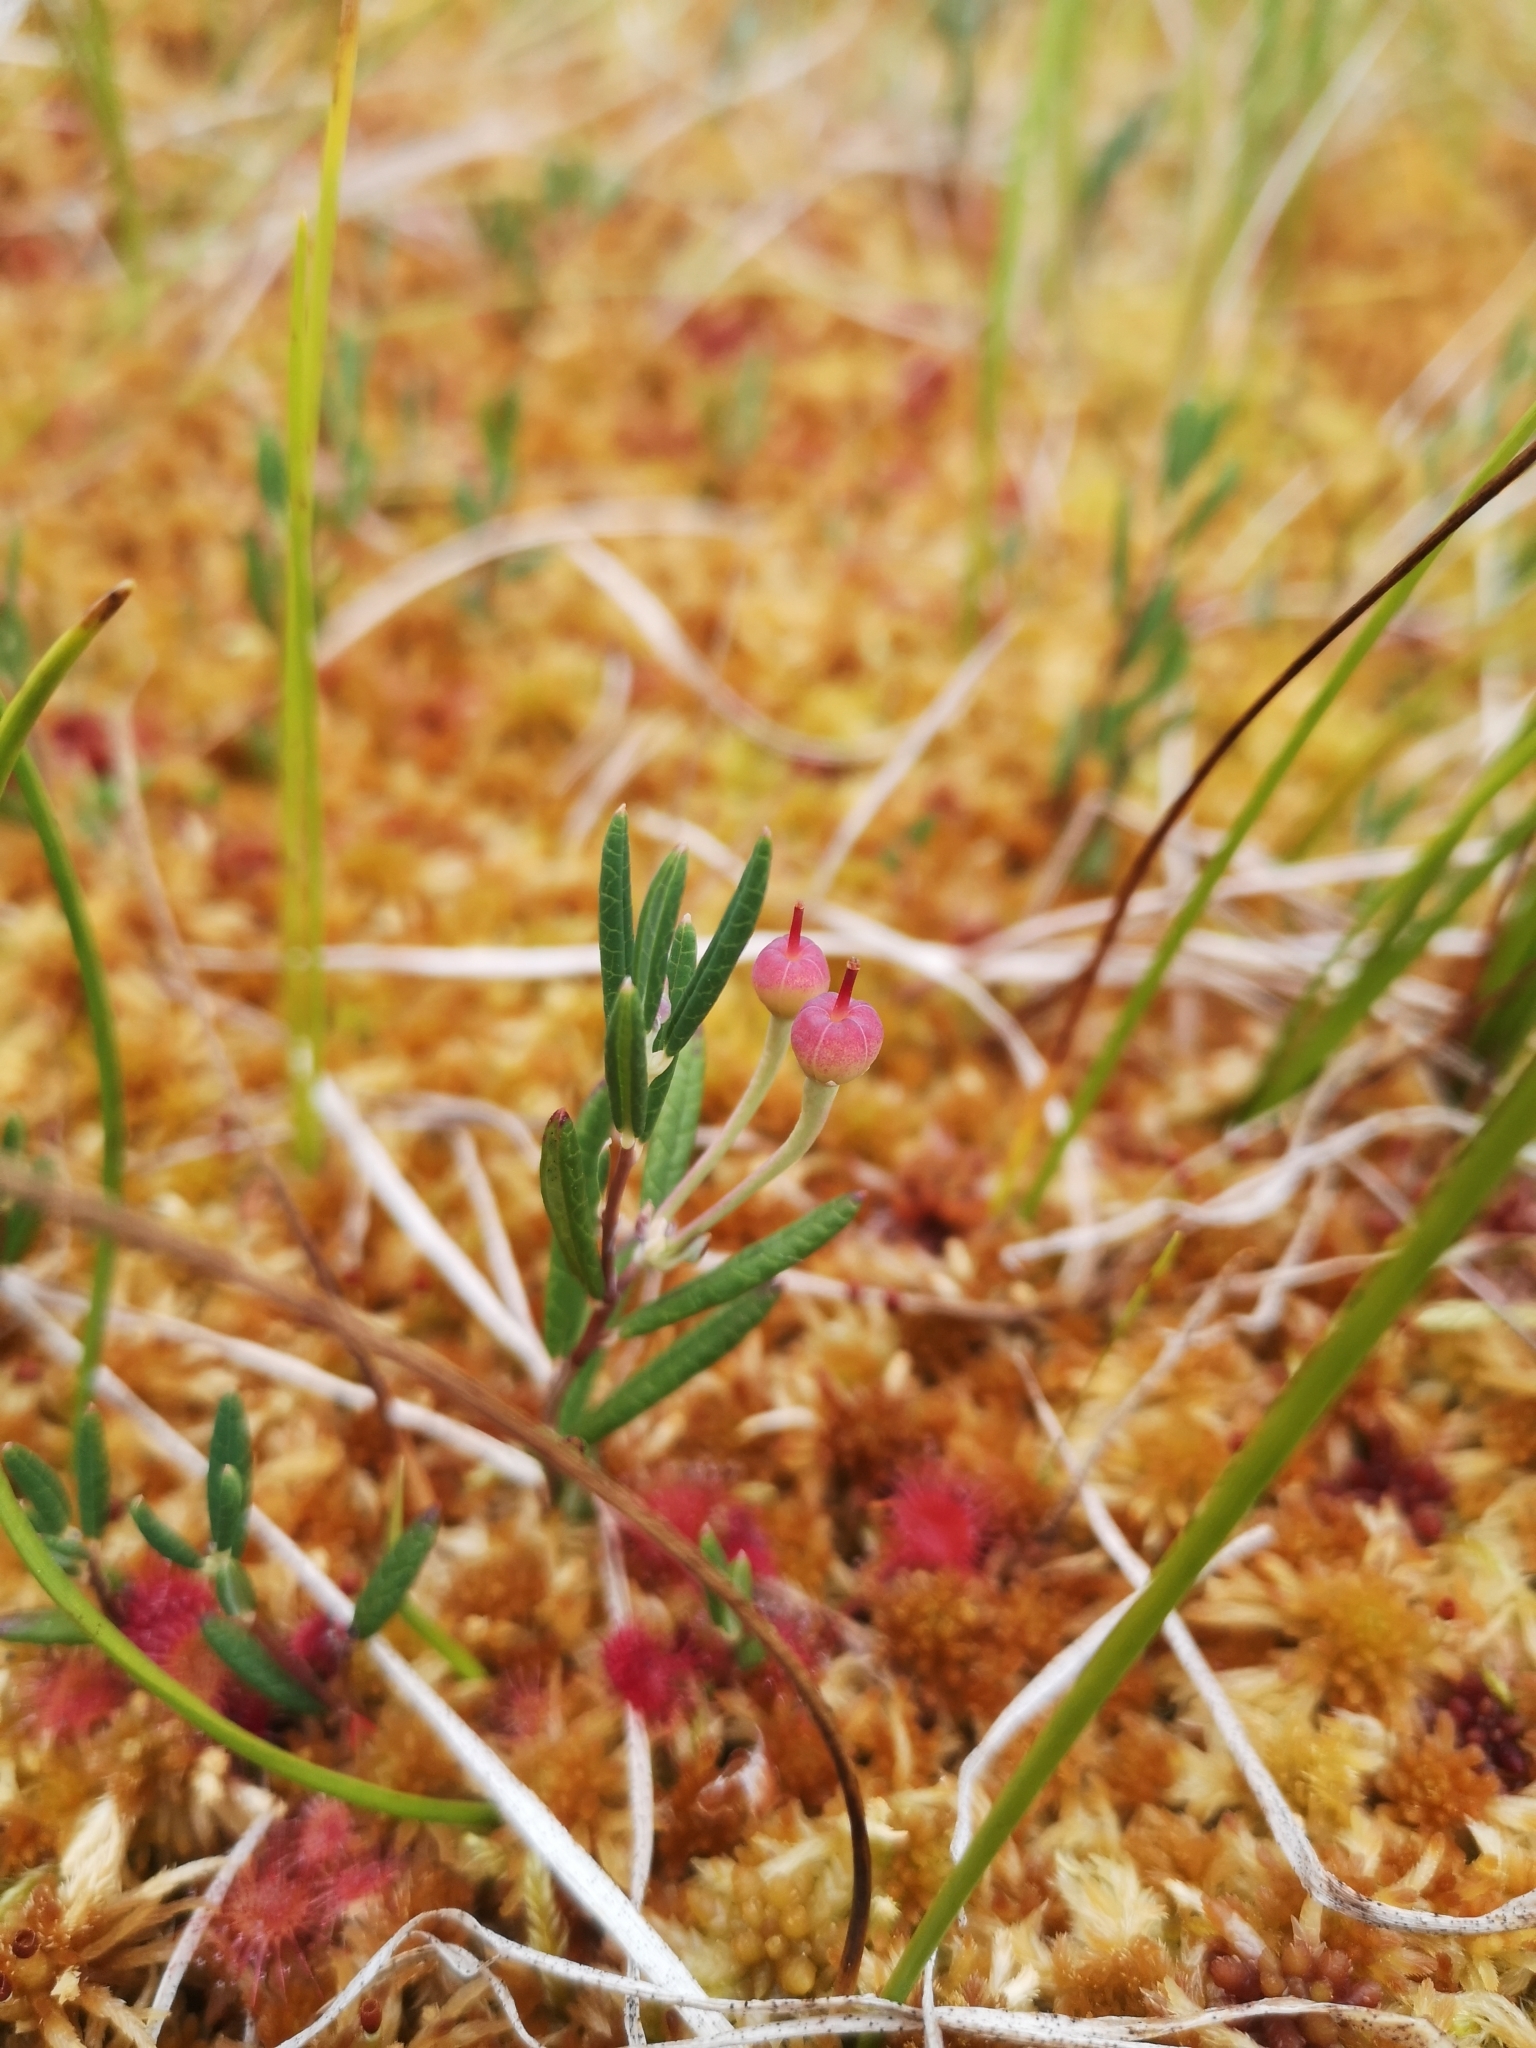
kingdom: Plantae
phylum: Tracheophyta
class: Magnoliopsida
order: Ericales
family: Ericaceae
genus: Andromeda
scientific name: Andromeda polifolia
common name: Bog-rosemary
